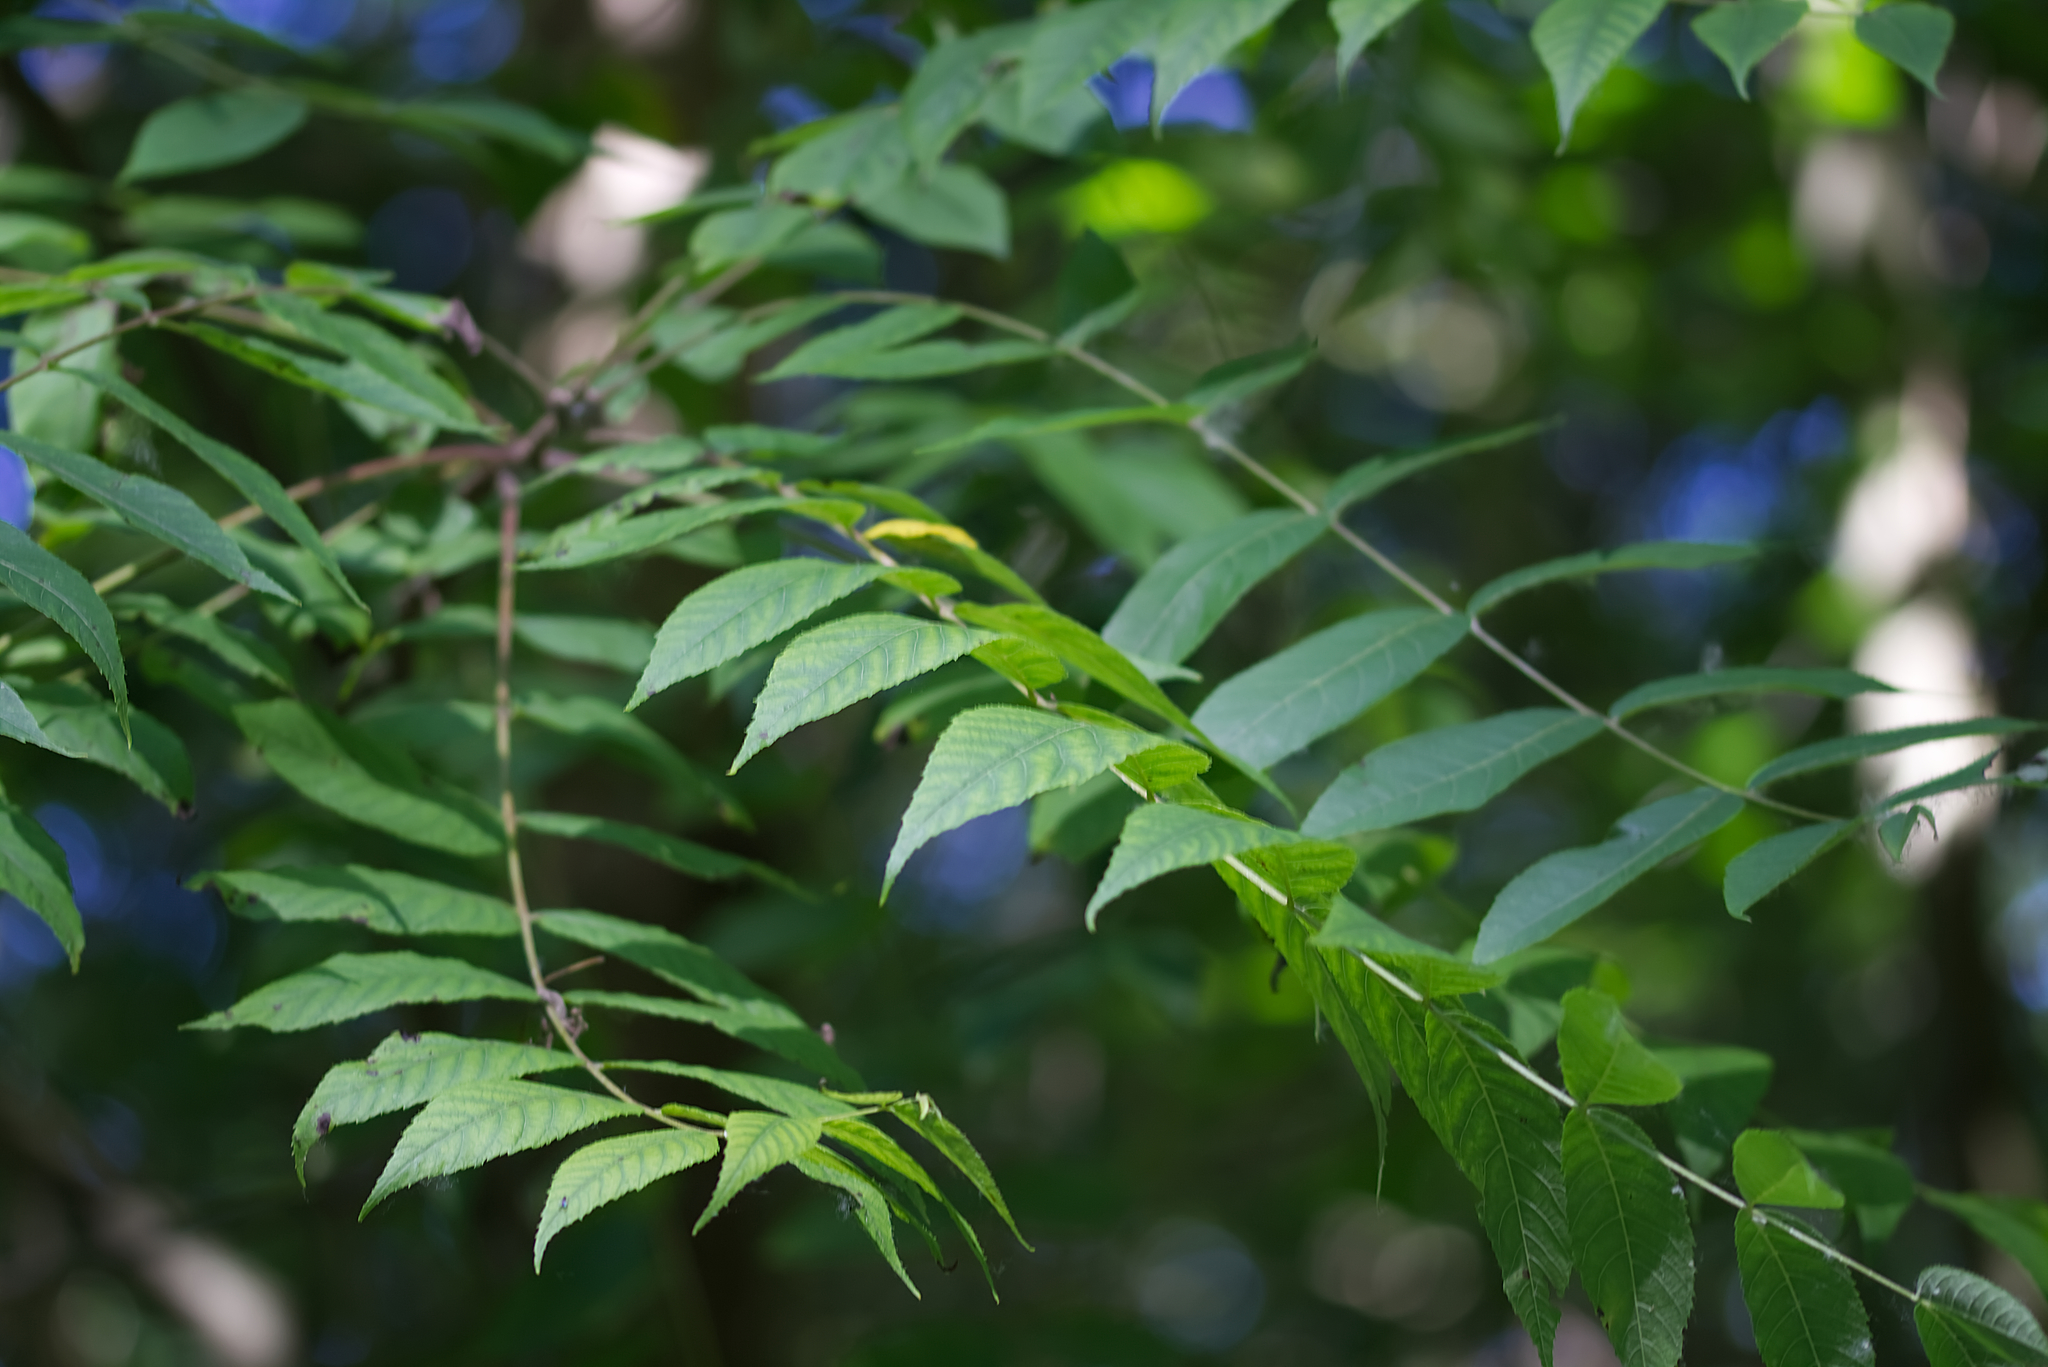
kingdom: Plantae
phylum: Tracheophyta
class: Magnoliopsida
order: Fagales
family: Juglandaceae
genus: Juglans
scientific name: Juglans nigra
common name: Black walnut
